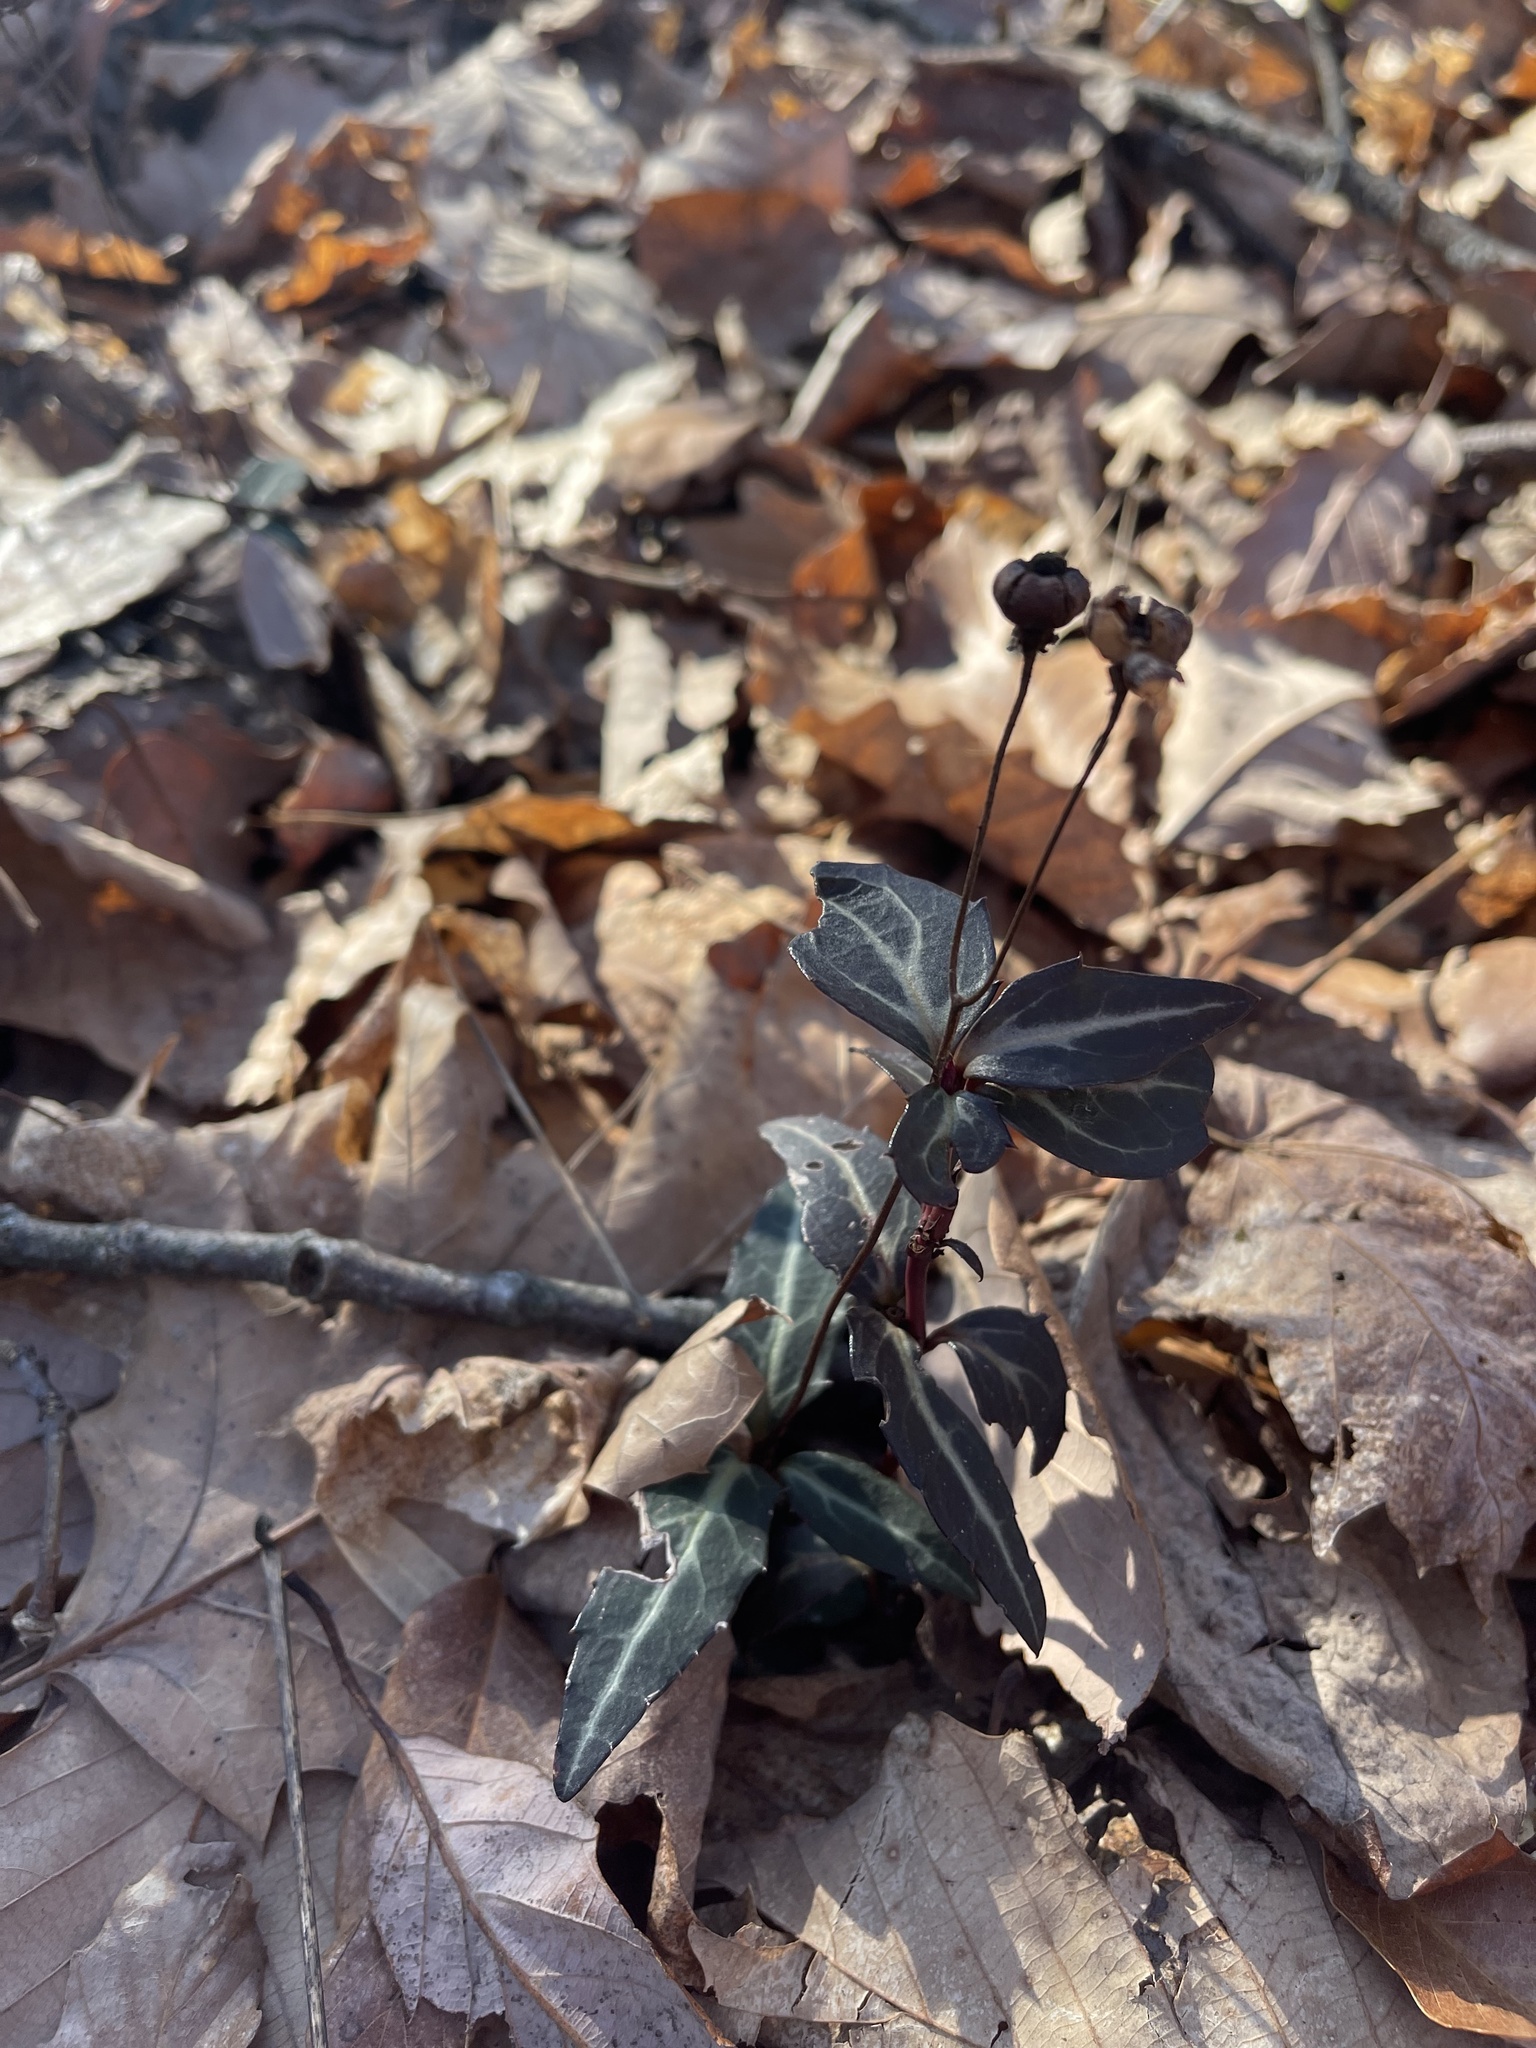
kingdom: Plantae
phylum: Tracheophyta
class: Magnoliopsida
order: Ericales
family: Ericaceae
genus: Chimaphila
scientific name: Chimaphila maculata
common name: Spotted pipsissewa
